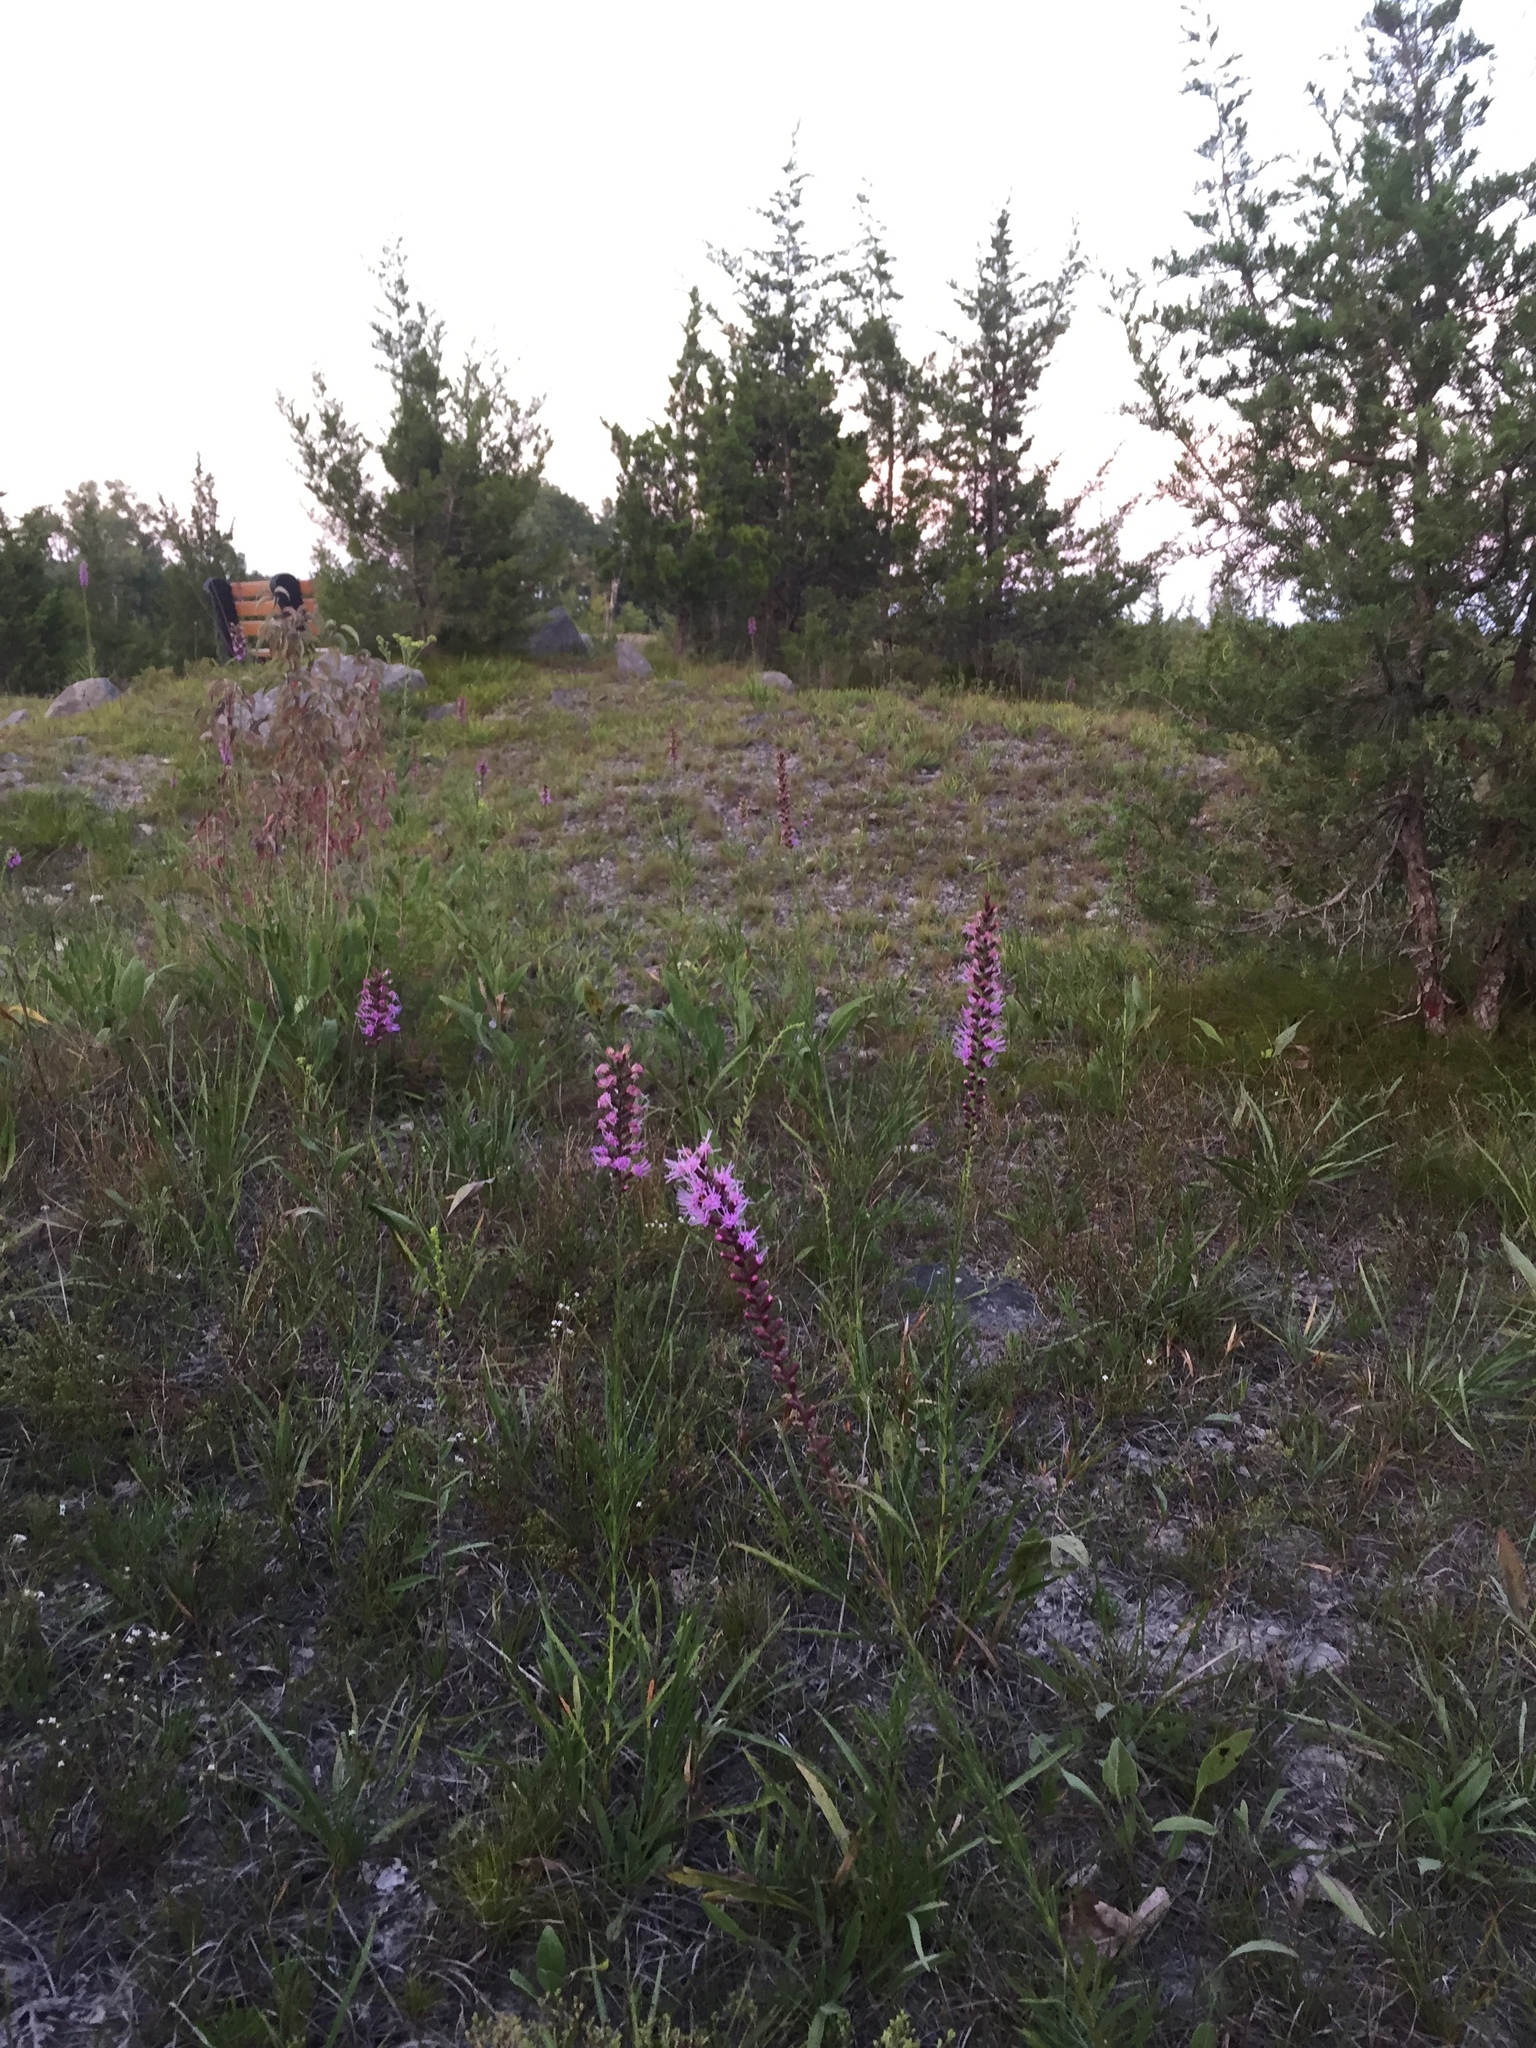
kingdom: Plantae
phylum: Tracheophyta
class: Magnoliopsida
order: Asterales
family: Asteraceae
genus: Liatris
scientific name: Liatris spicata
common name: Florist gayfeather
